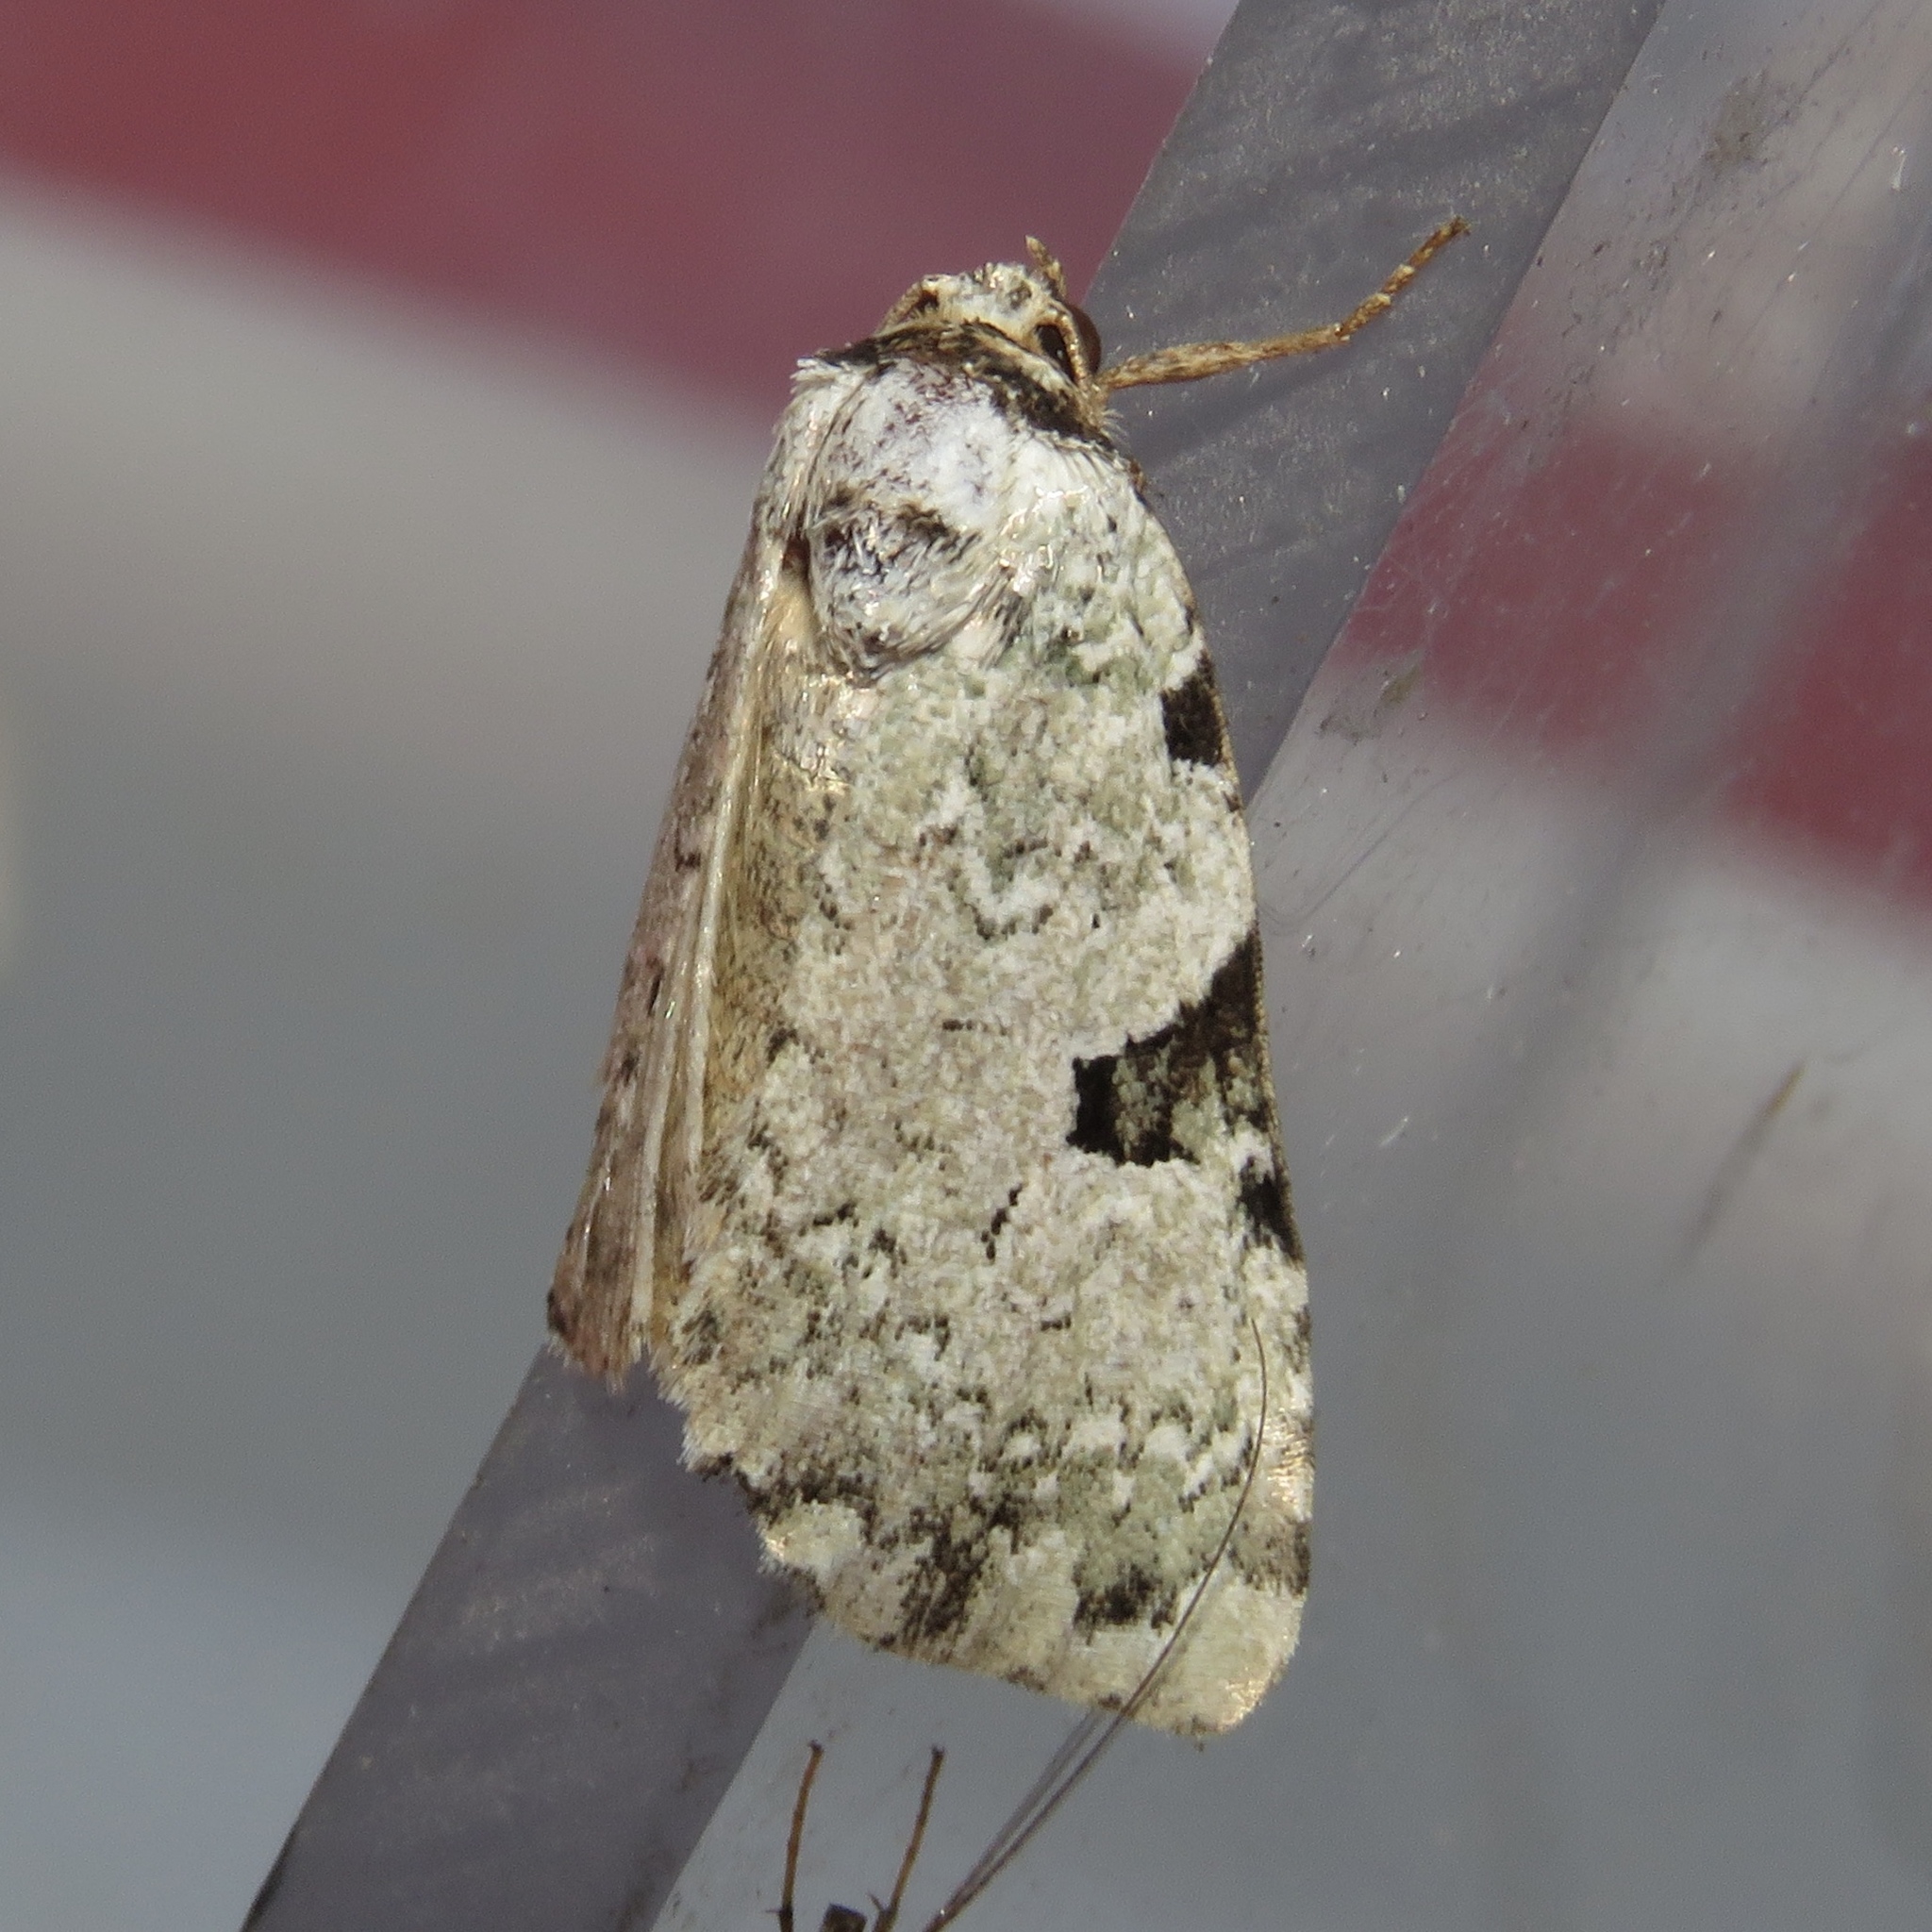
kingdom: Animalia
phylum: Arthropoda
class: Insecta
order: Lepidoptera
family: Noctuidae
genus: Leuconycta
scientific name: Leuconycta diphteroides
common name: Green leuconycta moth
